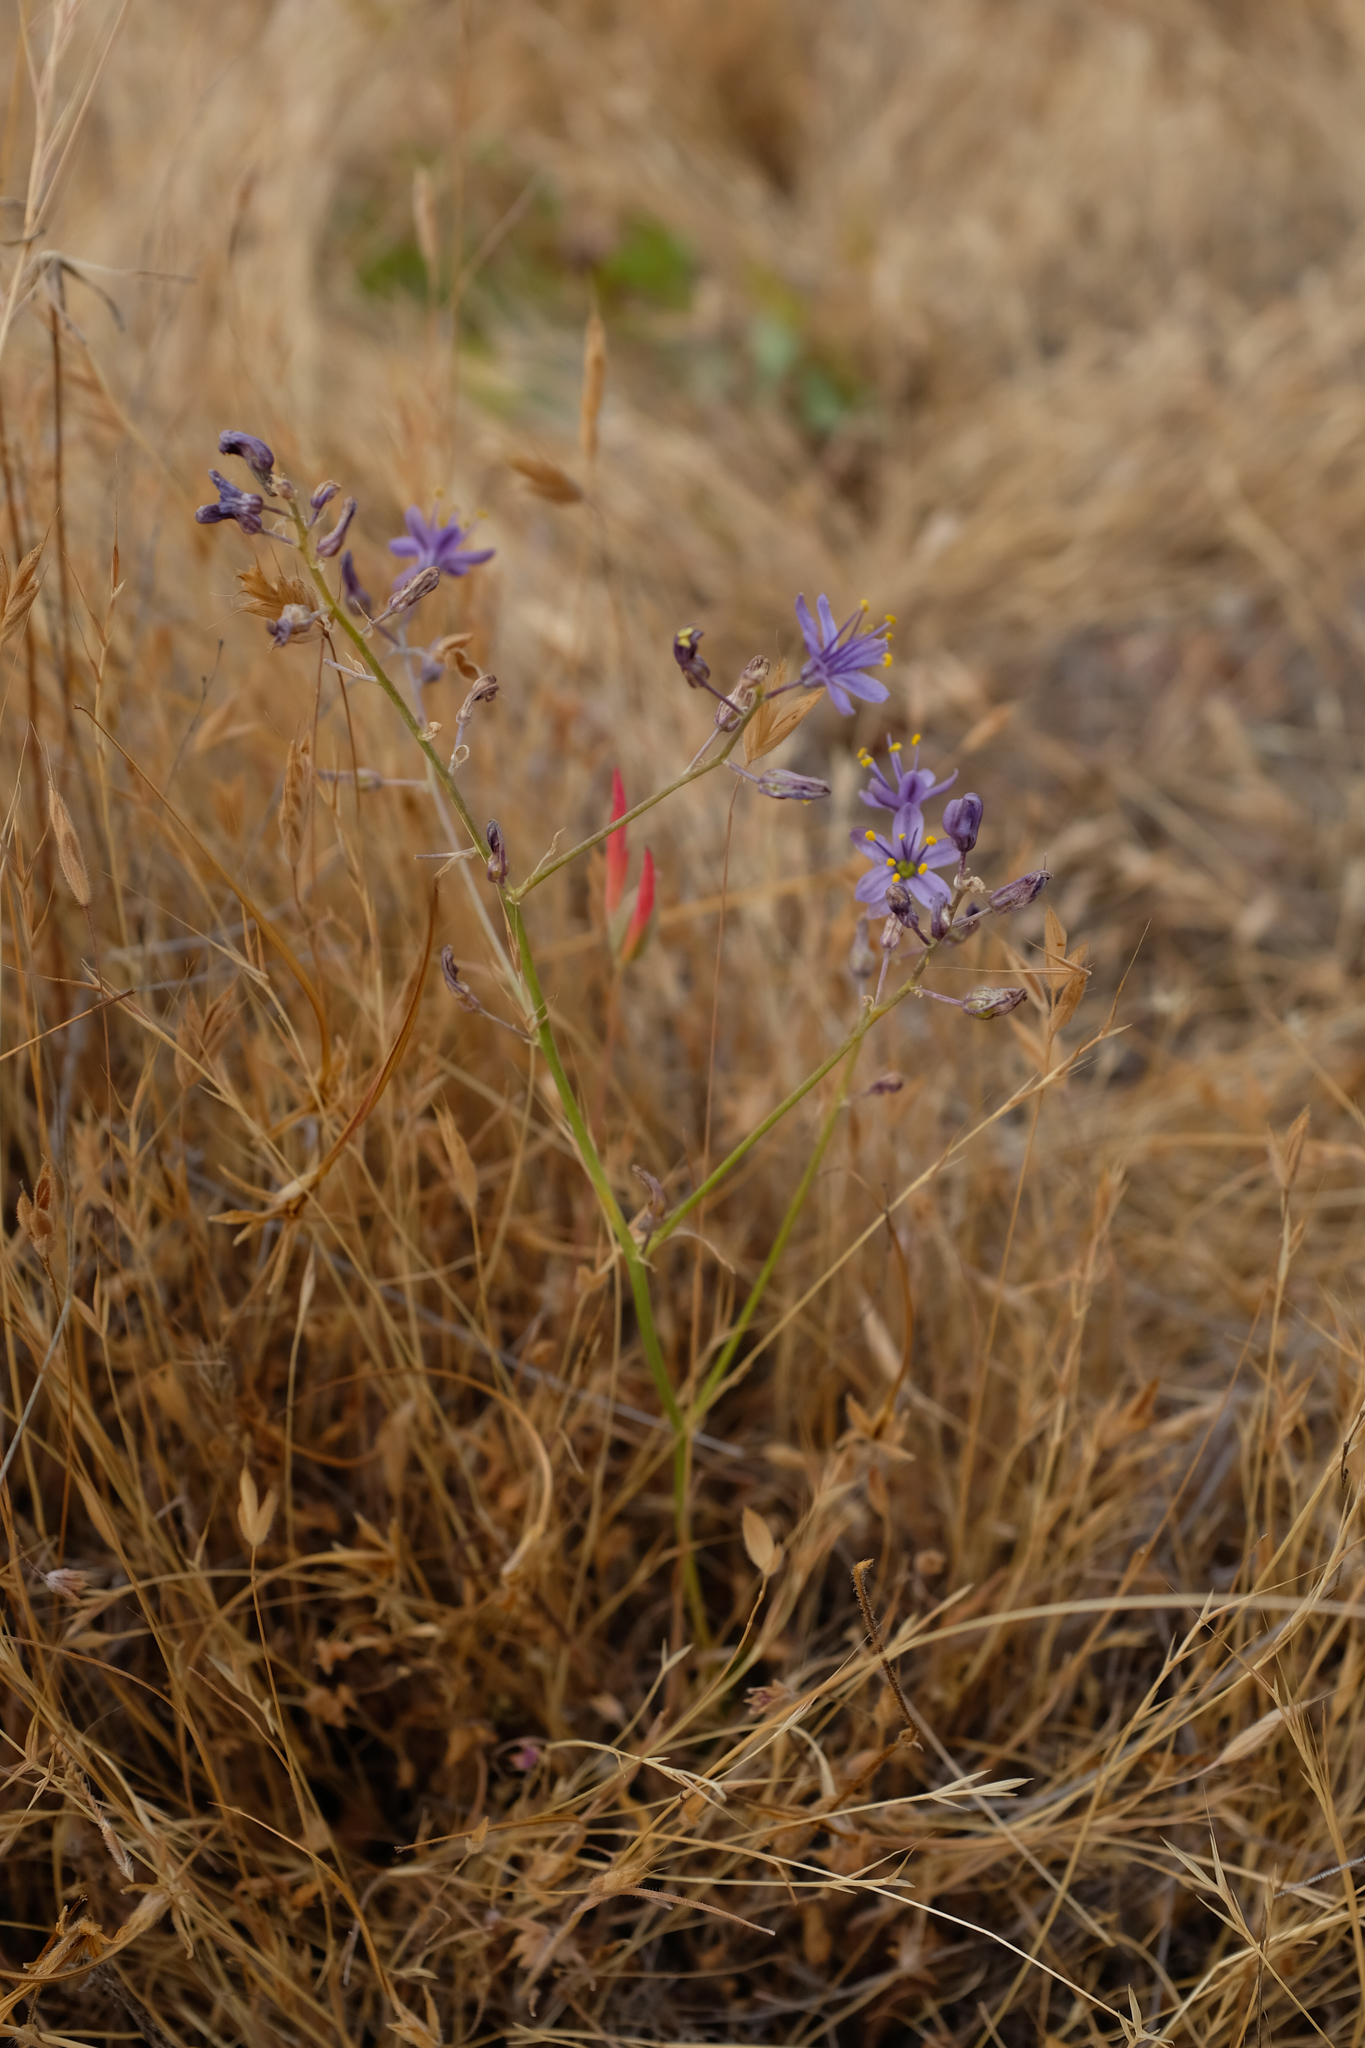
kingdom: Plantae
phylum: Tracheophyta
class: Liliopsida
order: Asparagales
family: Asparagaceae
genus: Hooveria
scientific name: Hooveria purpurea
